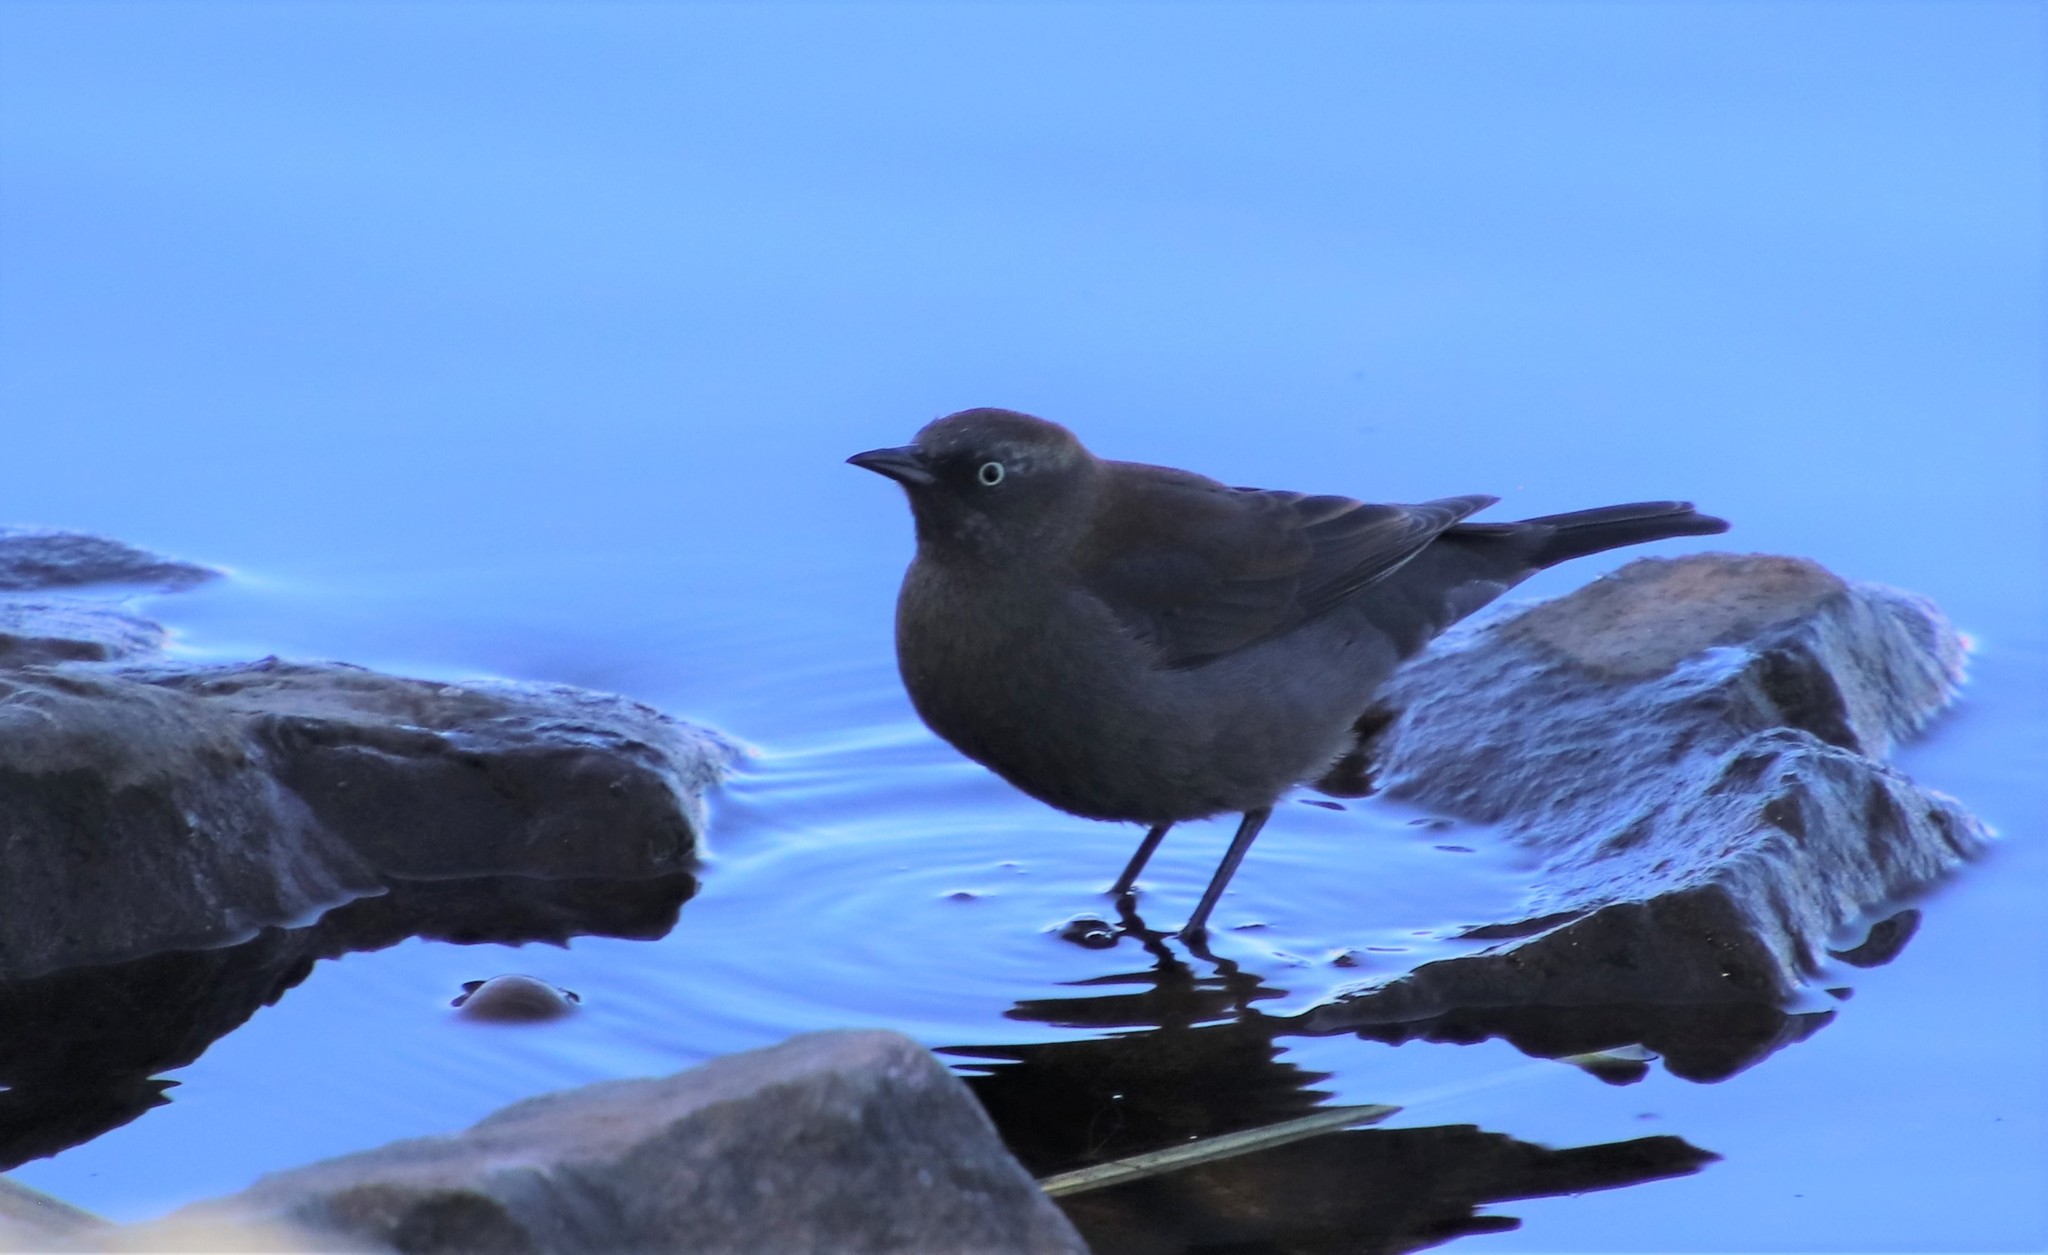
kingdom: Animalia
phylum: Chordata
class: Aves
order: Passeriformes
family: Icteridae
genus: Euphagus
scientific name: Euphagus carolinus
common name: Rusty blackbird
